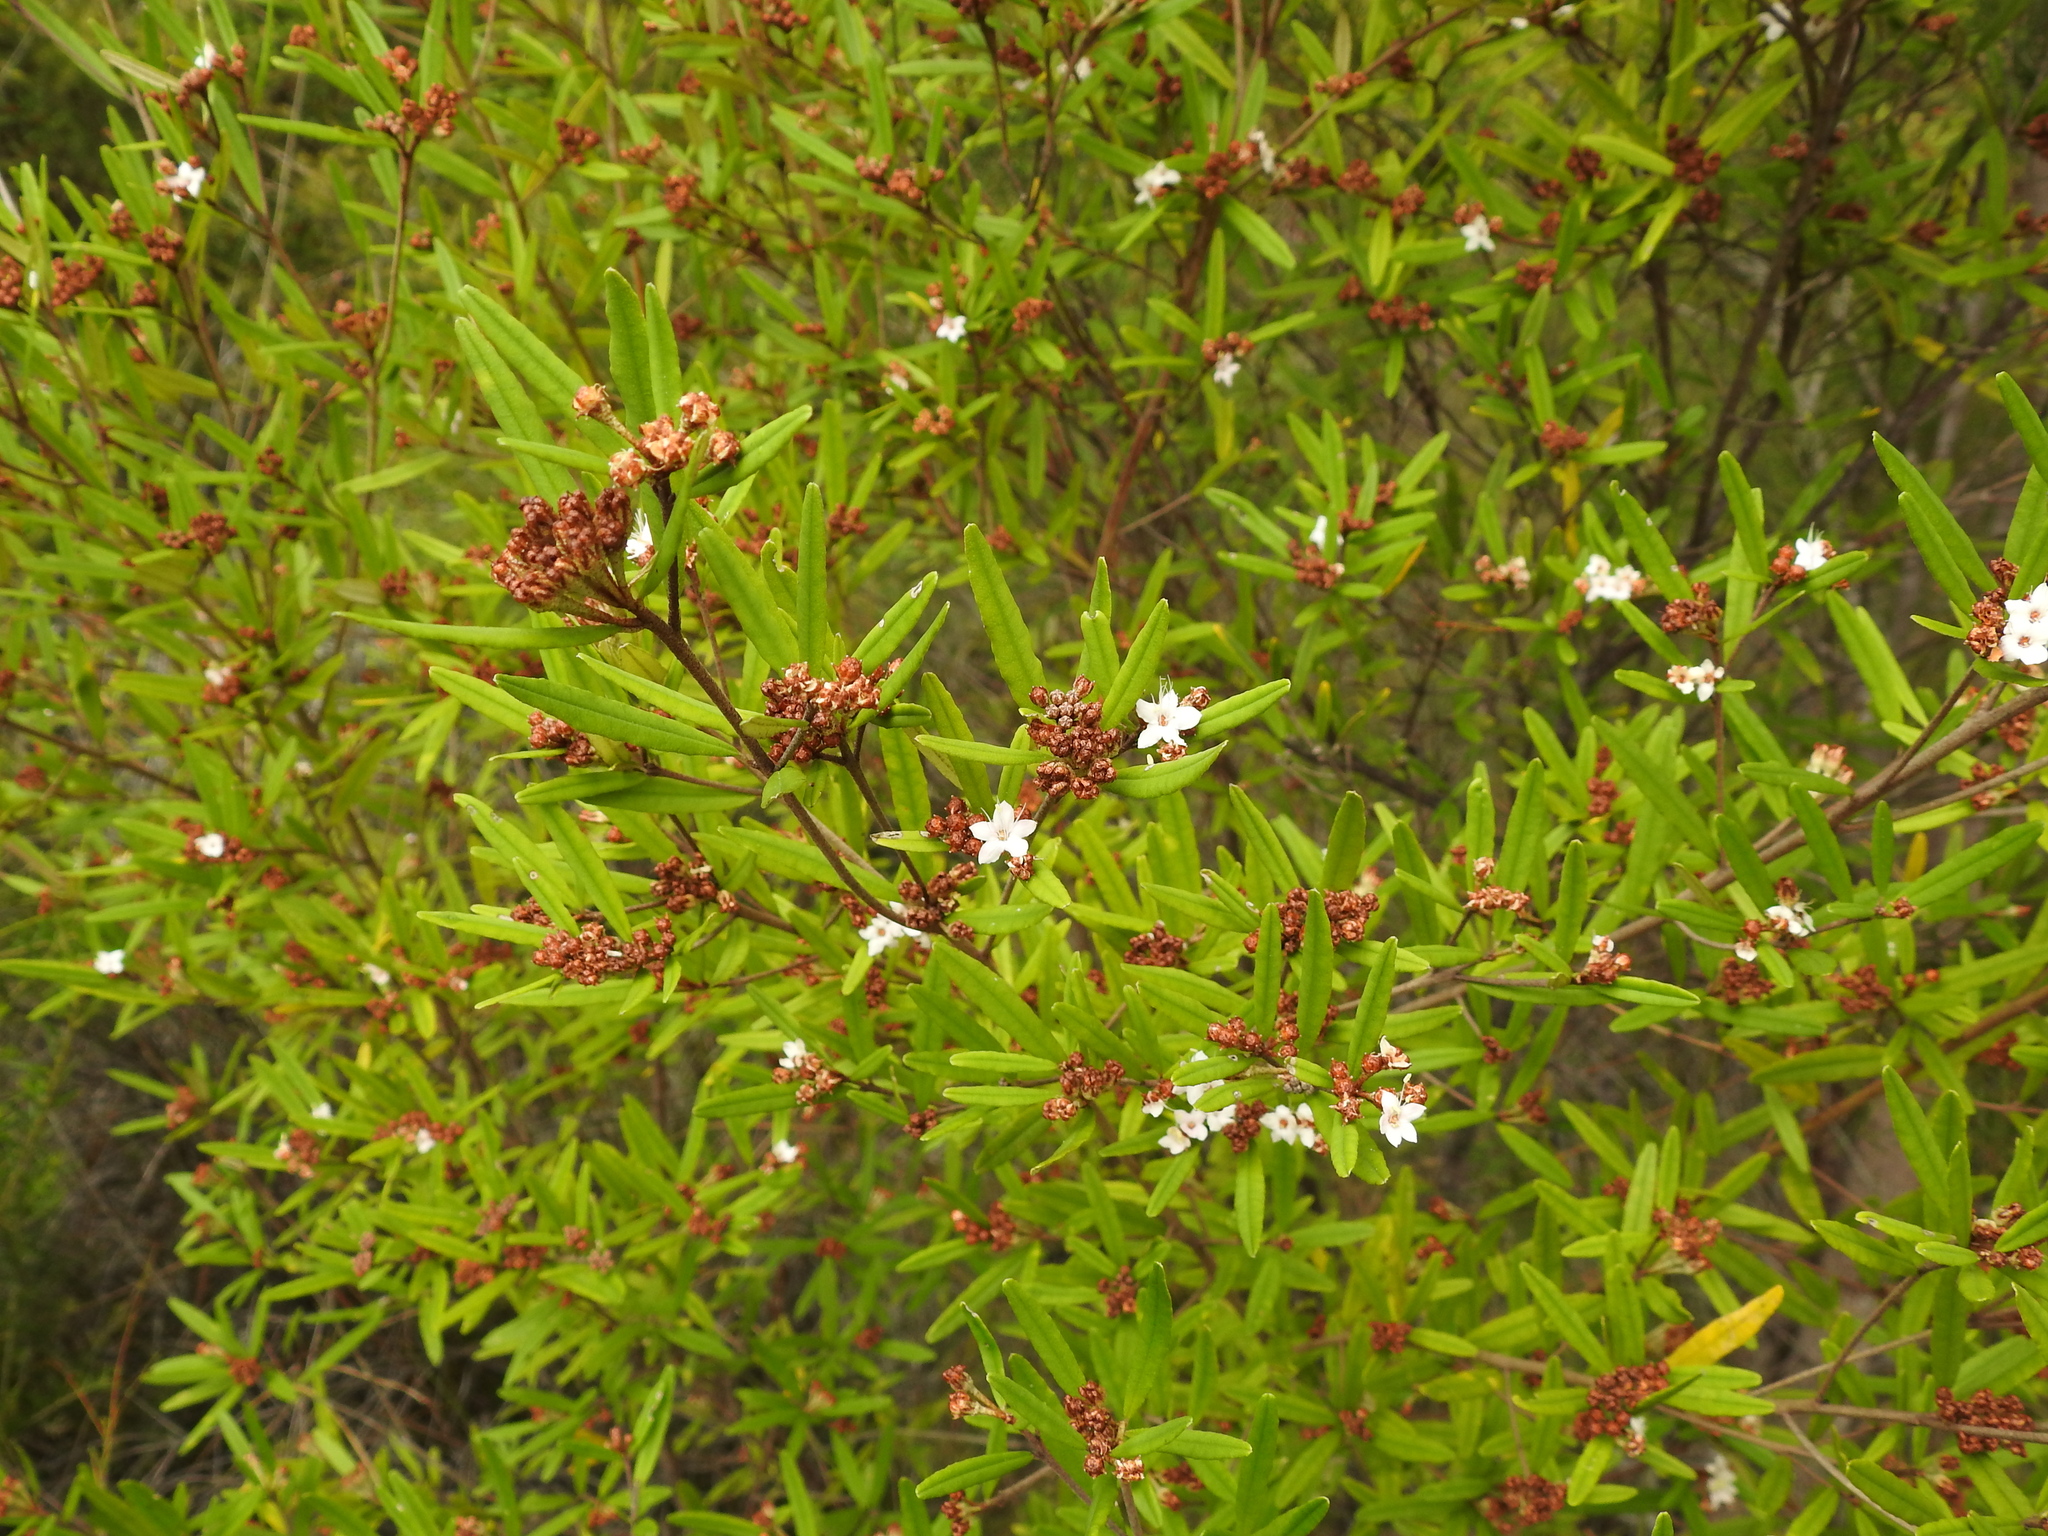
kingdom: Plantae
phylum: Tracheophyta
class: Magnoliopsida
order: Sapindales
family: Rutaceae
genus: Phebalium
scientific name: Phebalium woombye
